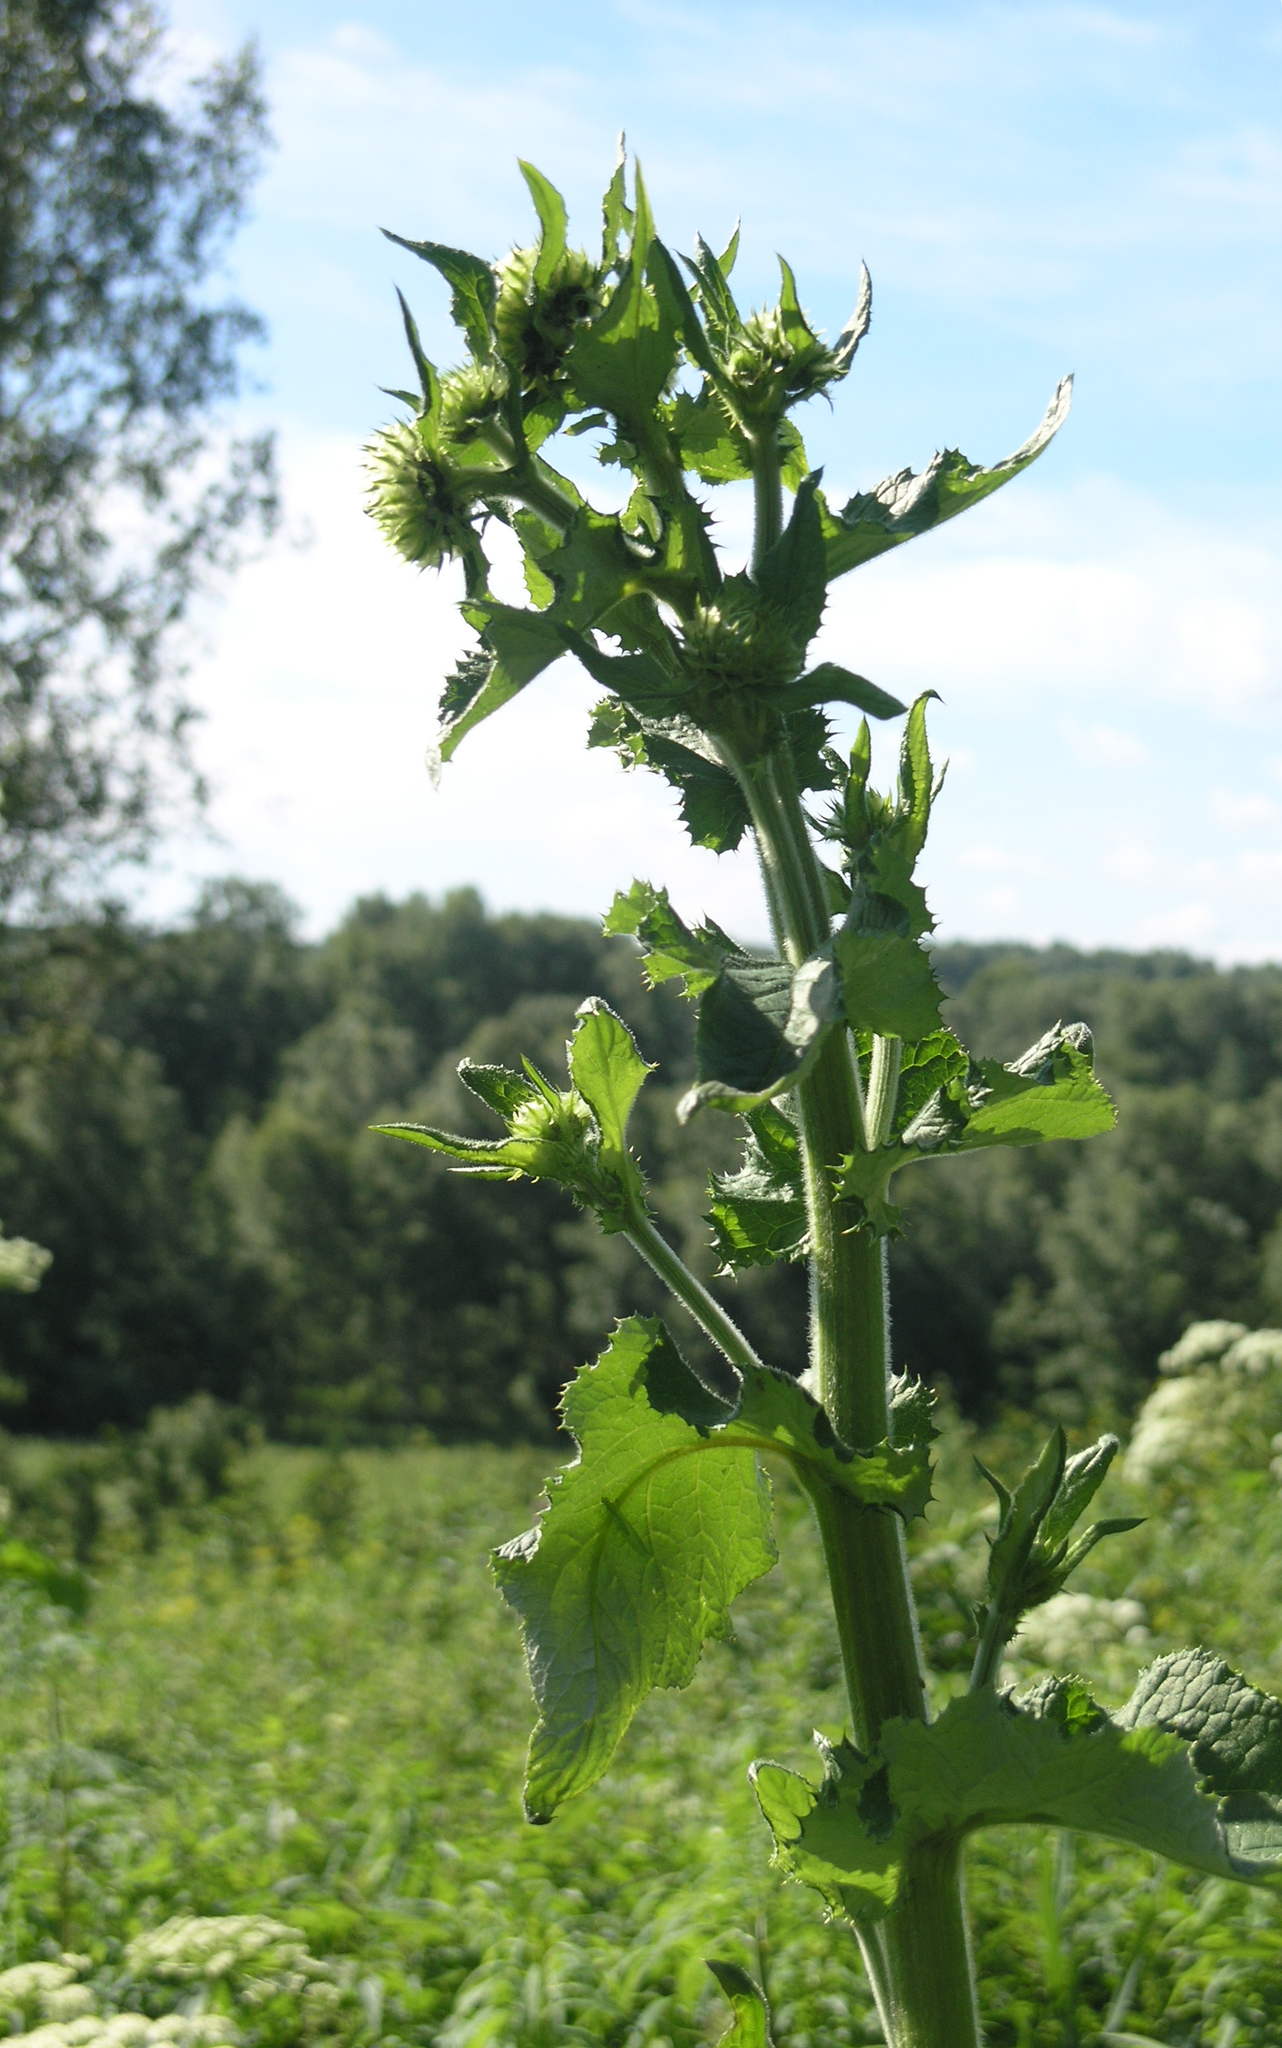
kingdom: Plantae
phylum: Tracheophyta
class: Magnoliopsida
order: Asterales
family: Asteraceae
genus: Alfredia
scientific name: Alfredia cernua
